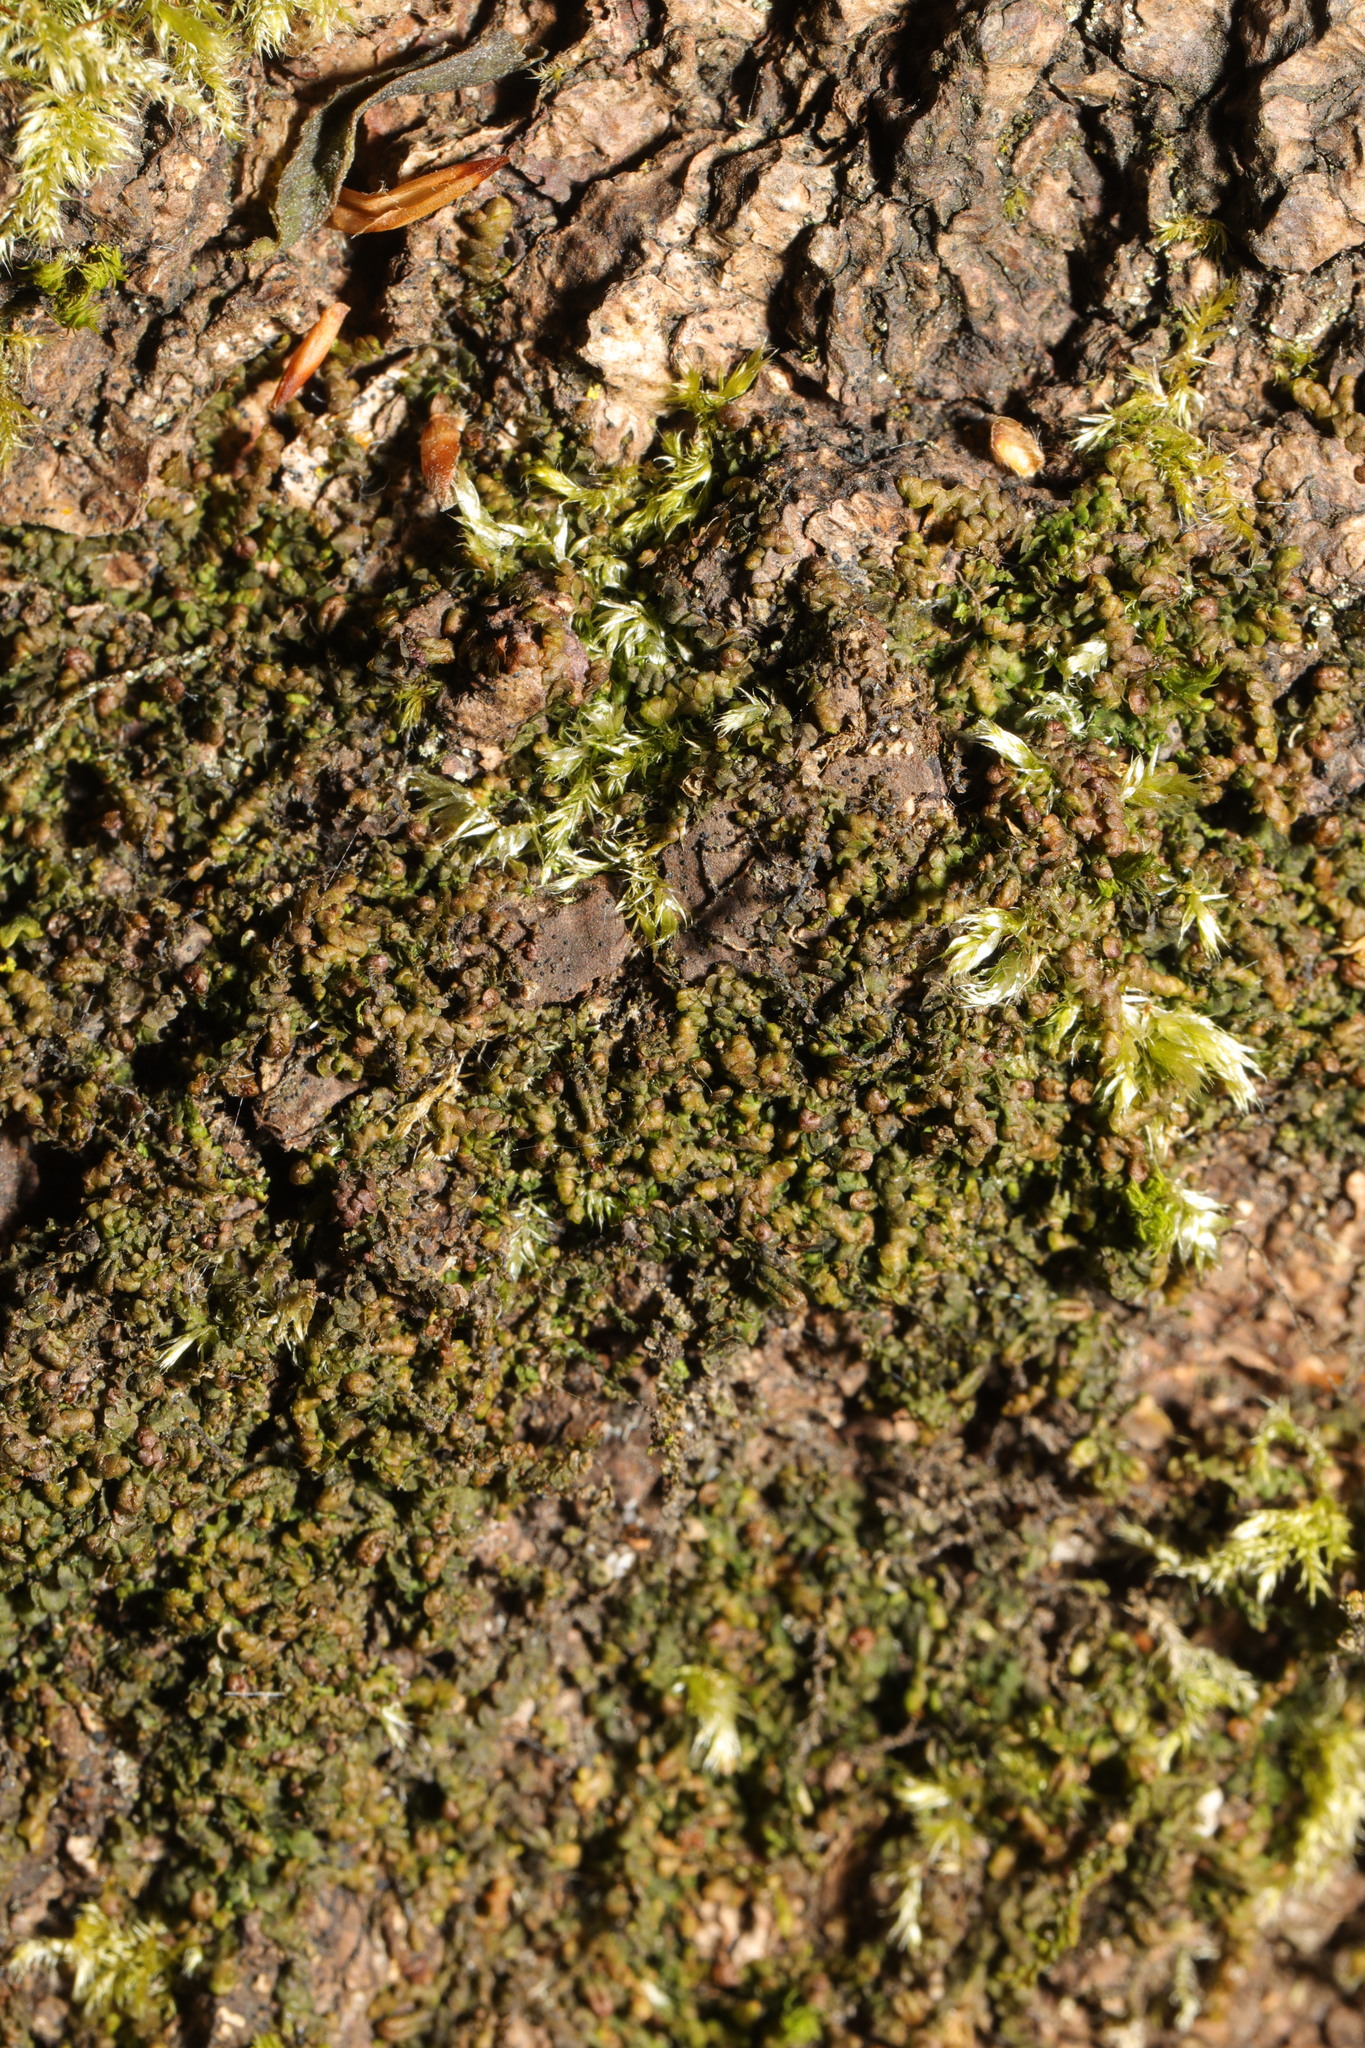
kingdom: Plantae
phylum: Marchantiophyta
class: Jungermanniopsida
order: Porellales
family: Frullaniaceae
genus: Frullania
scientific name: Frullania dilatata
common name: Dilated scalewort
